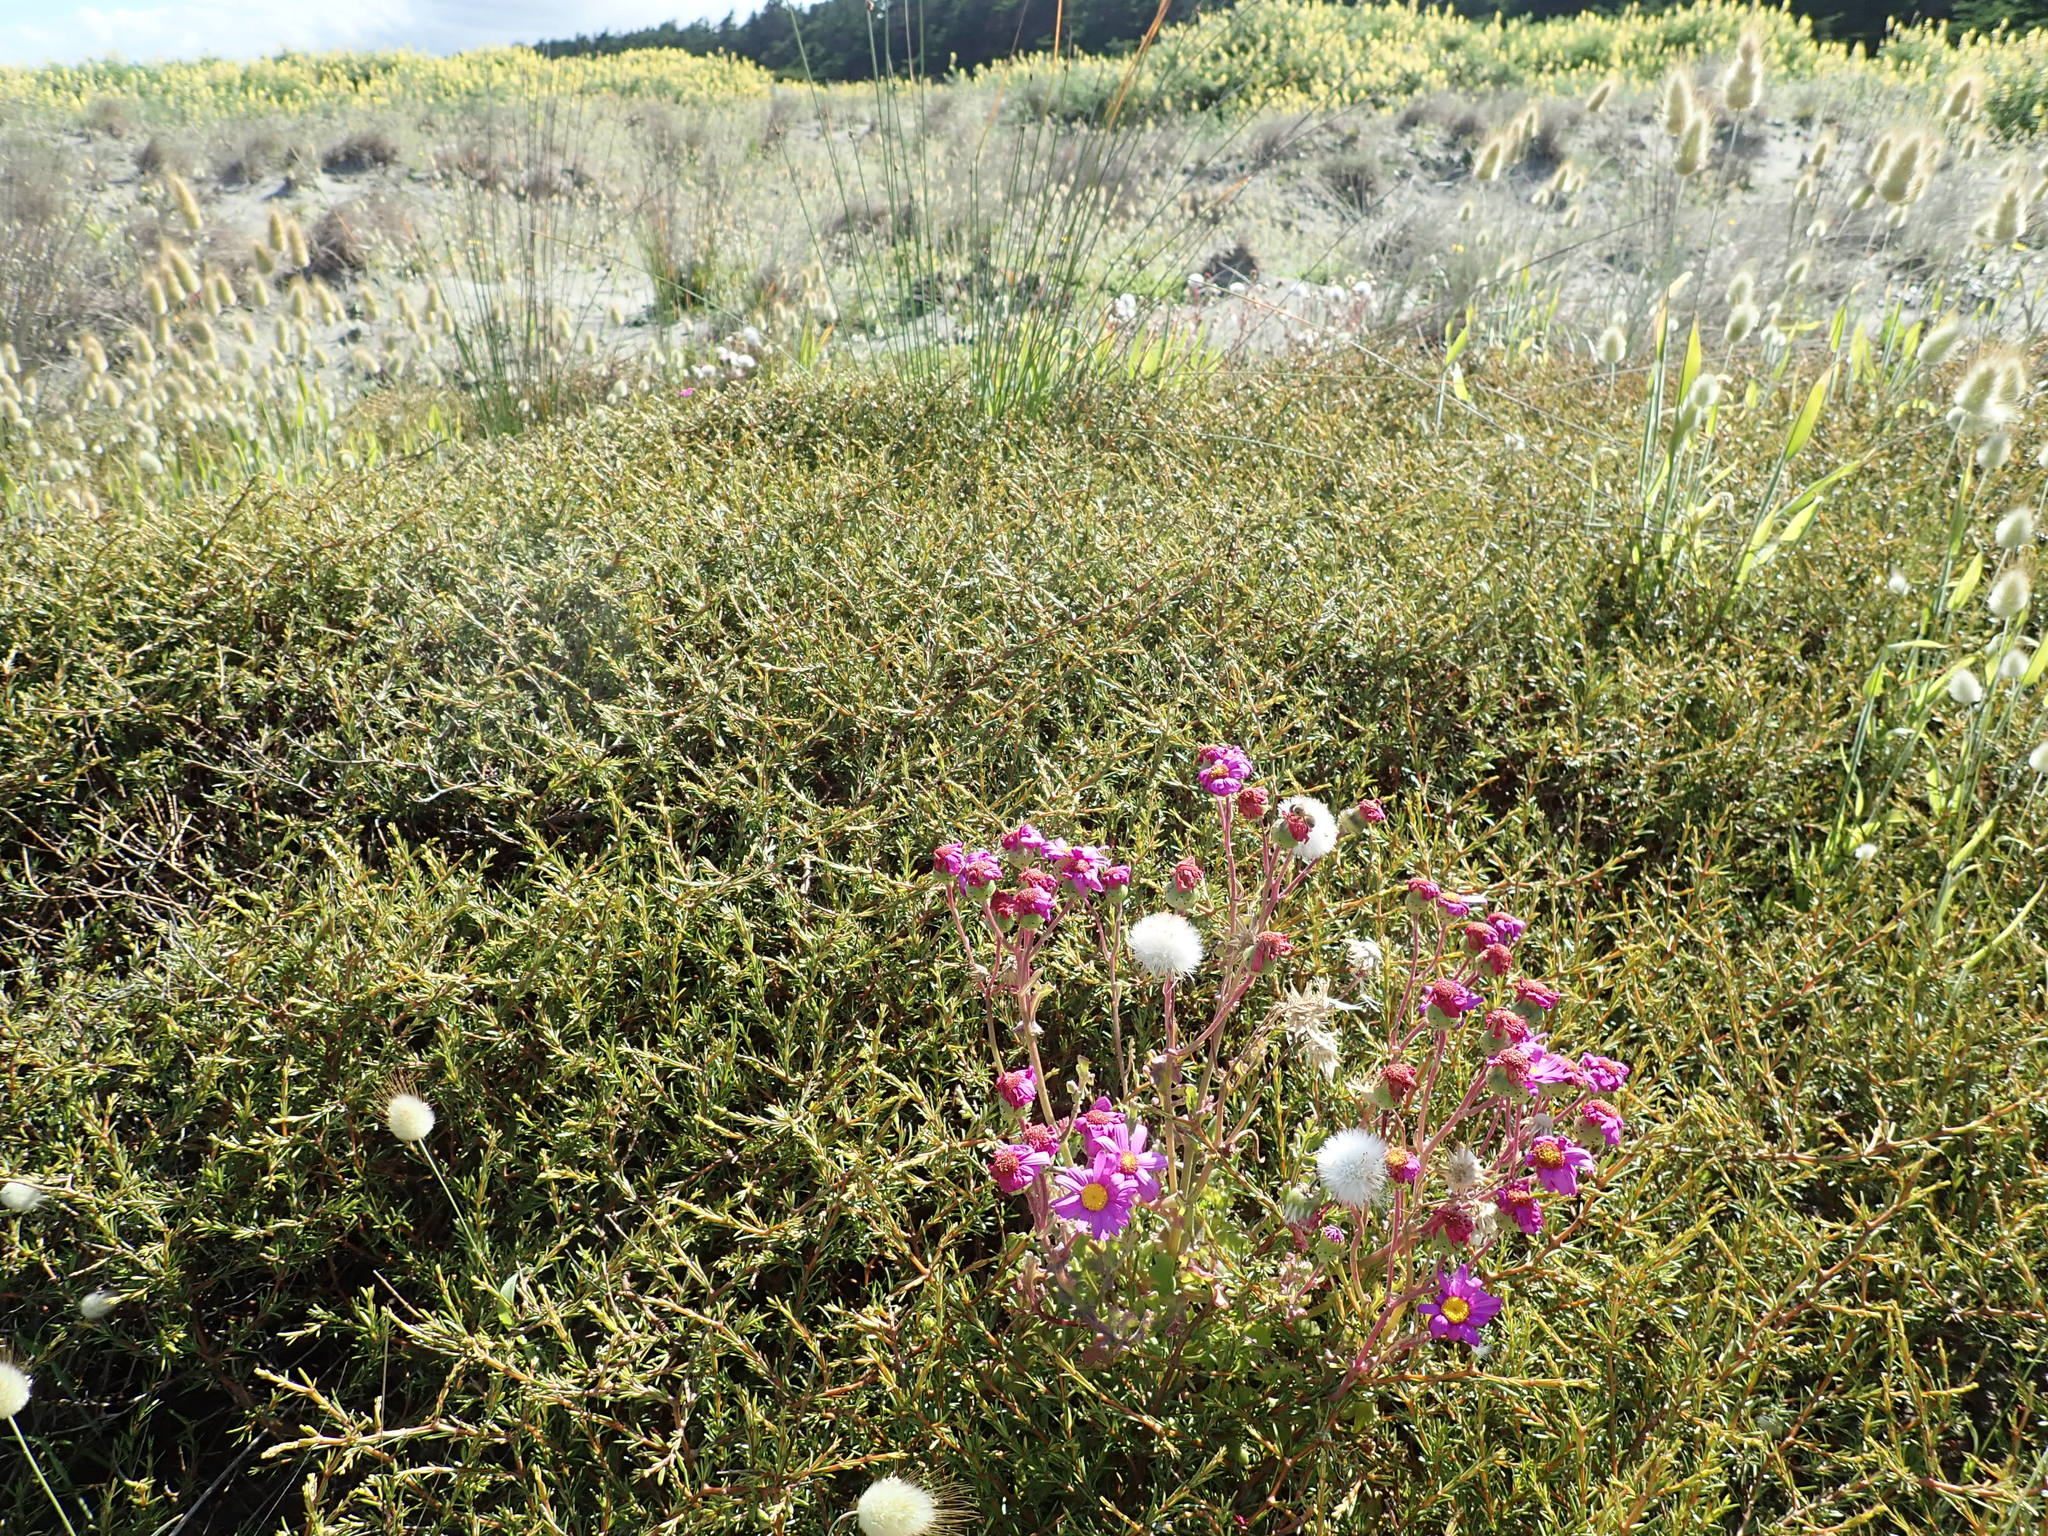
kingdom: Plantae
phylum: Tracheophyta
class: Magnoliopsida
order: Asterales
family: Asteraceae
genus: Senecio
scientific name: Senecio elegans
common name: Purple groundsel
